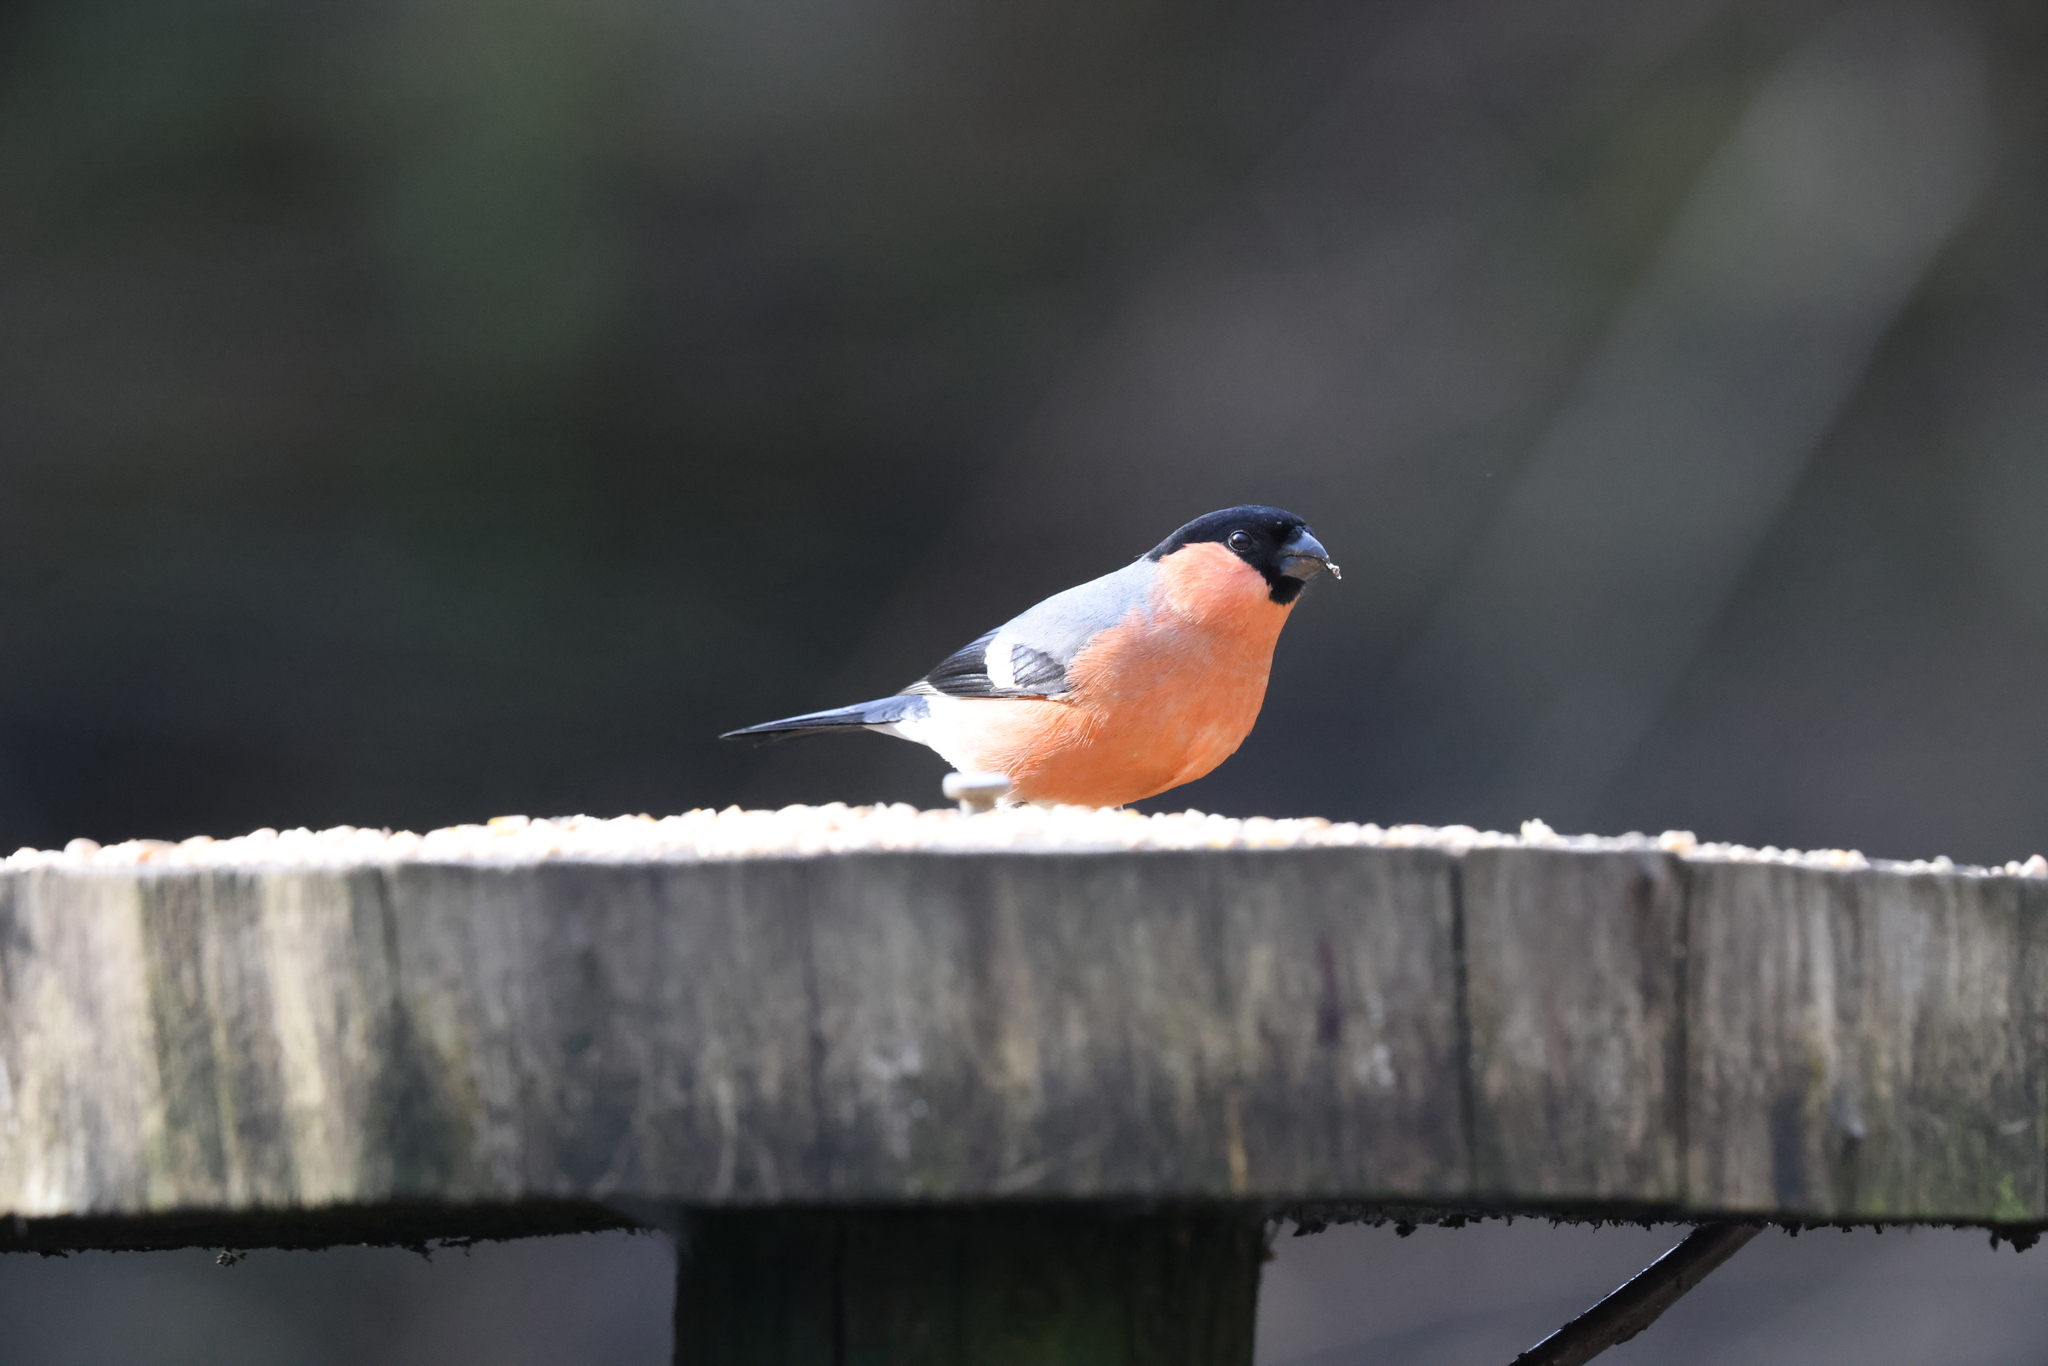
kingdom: Animalia
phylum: Chordata
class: Aves
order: Passeriformes
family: Fringillidae
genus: Pyrrhula
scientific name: Pyrrhula pyrrhula
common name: Eurasian bullfinch
